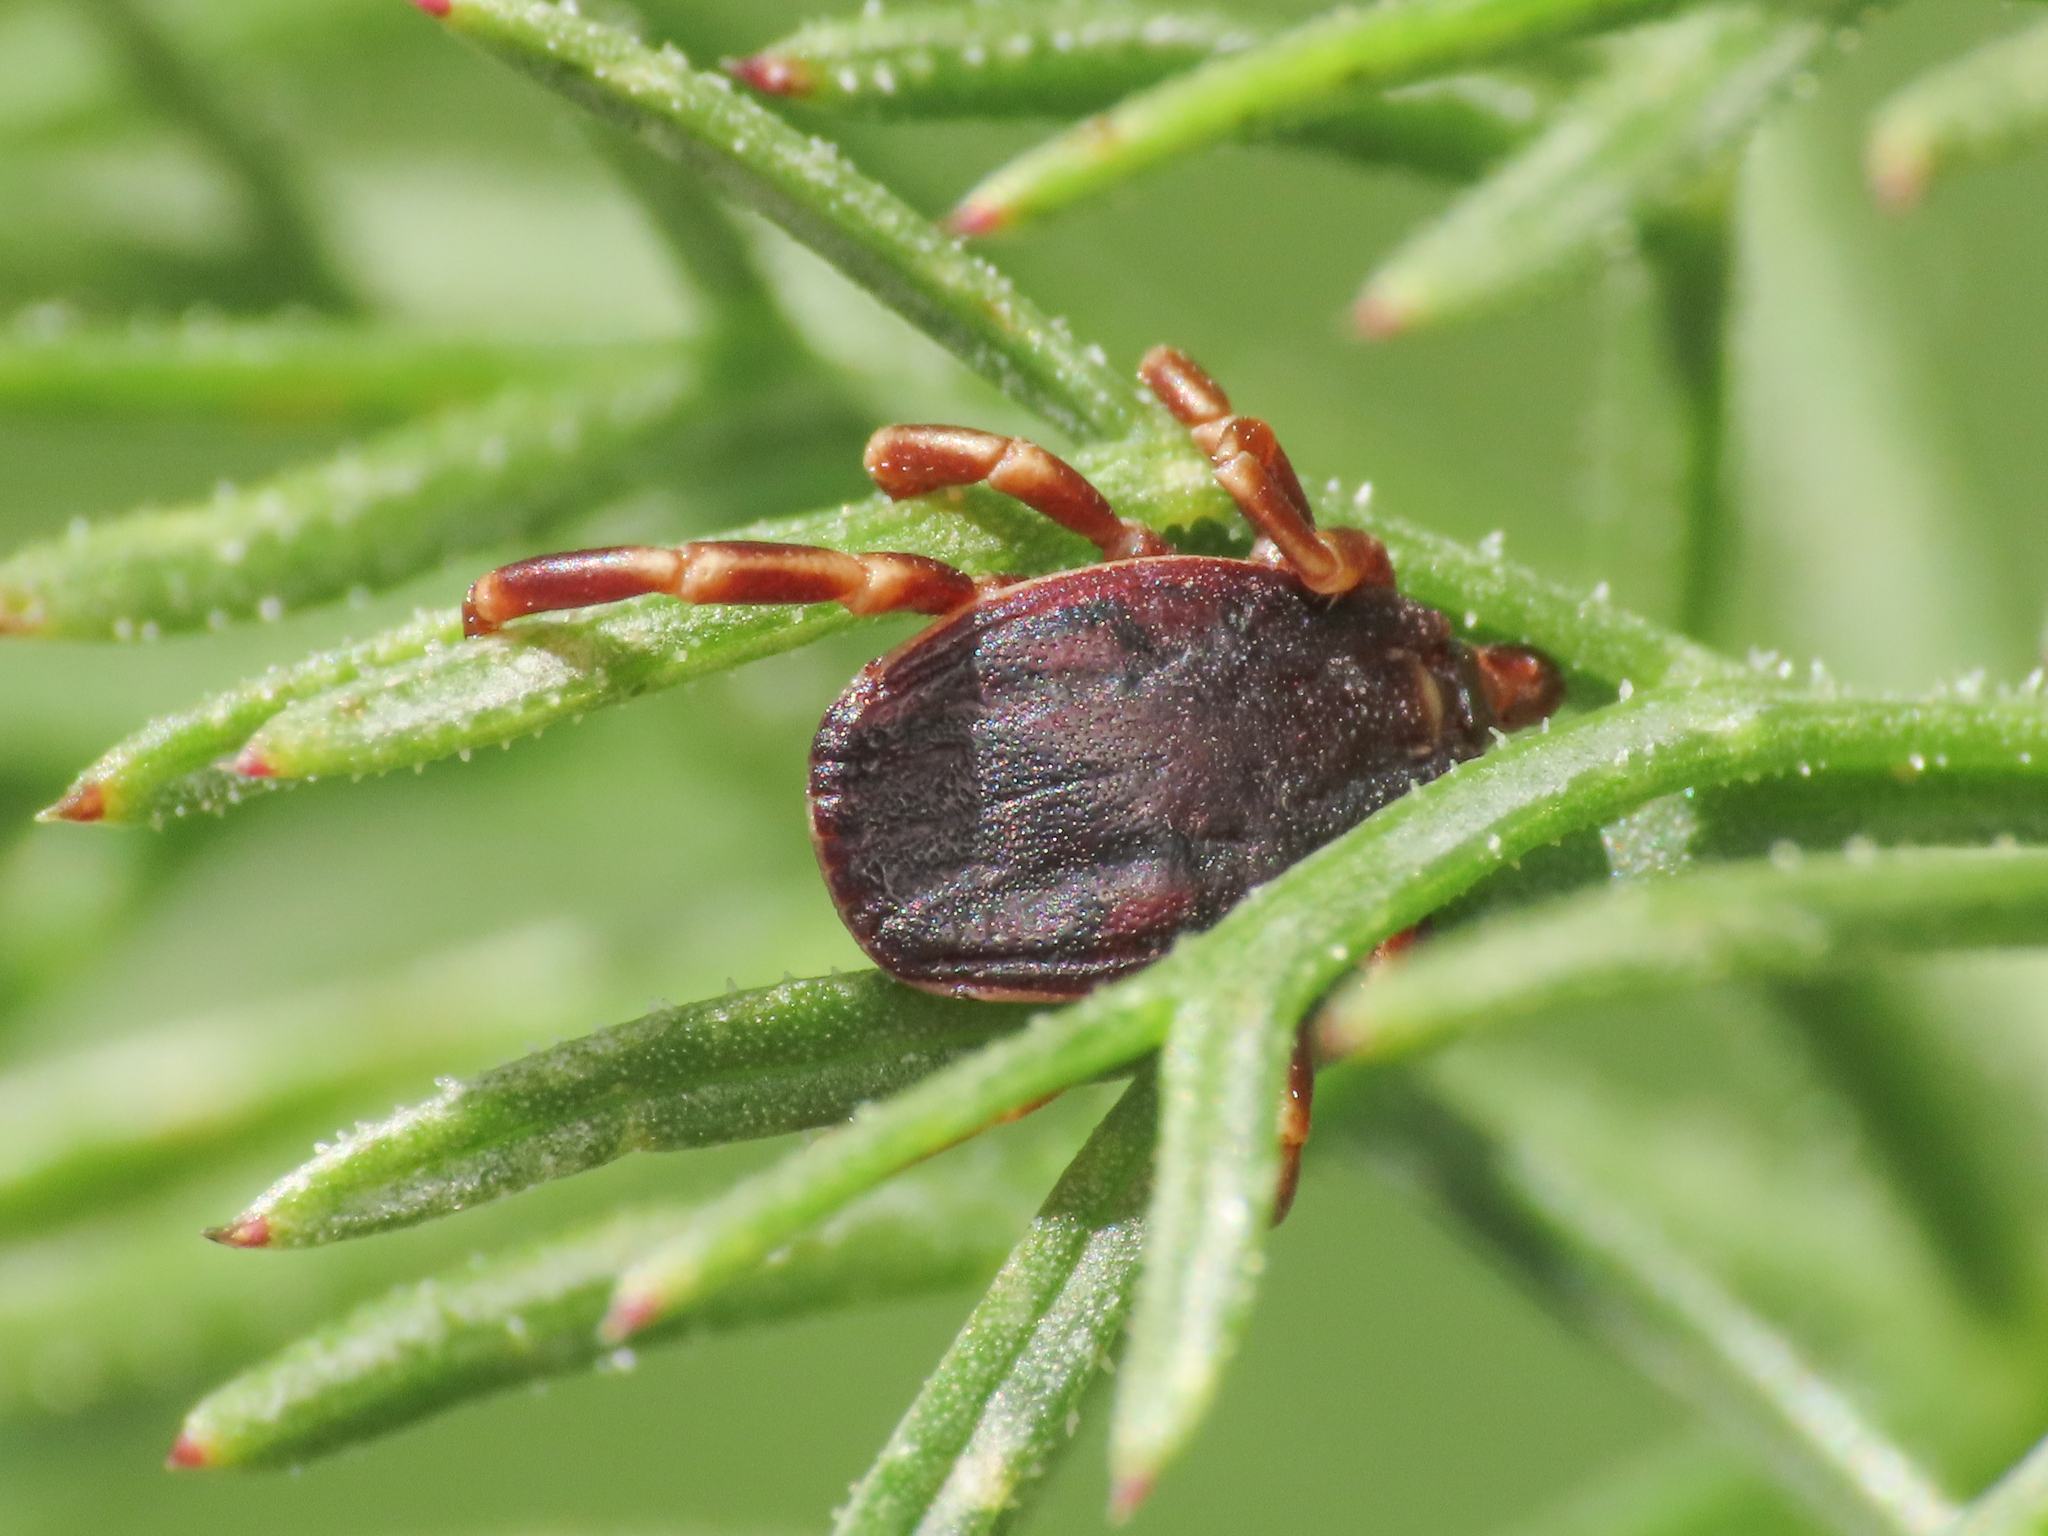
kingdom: Animalia
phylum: Arthropoda
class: Arachnida
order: Ixodida
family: Ixodidae
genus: Hyalomma
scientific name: Hyalomma marginatum
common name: Mediterranean hyalomma
